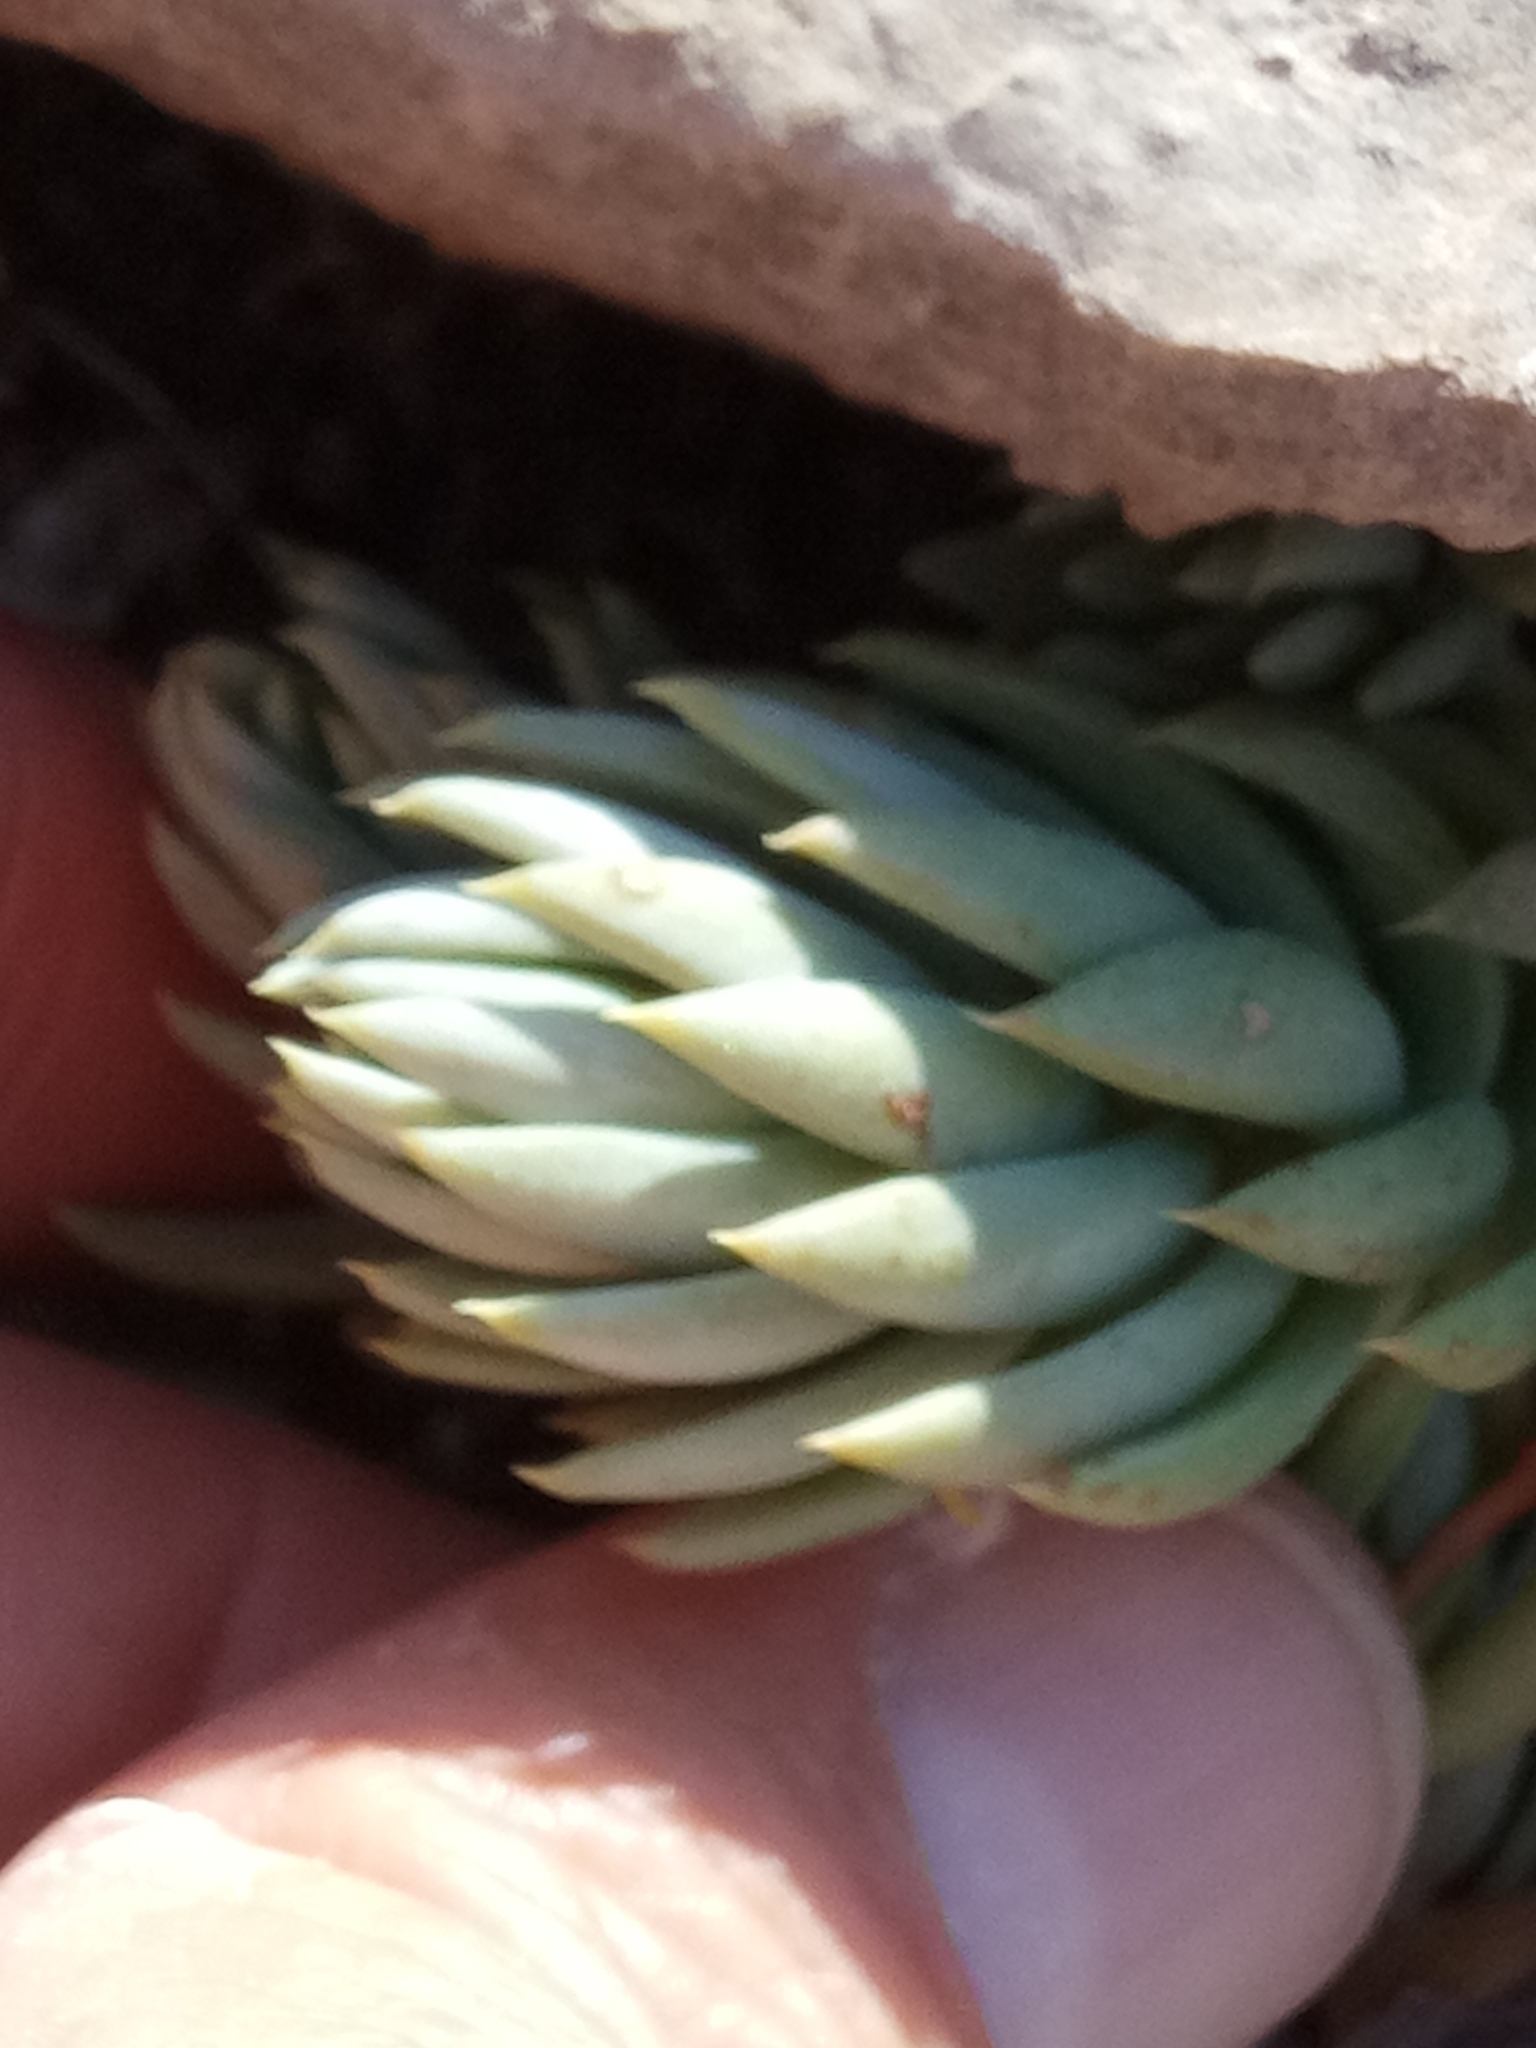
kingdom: Plantae
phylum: Tracheophyta
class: Magnoliopsida
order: Saxifragales
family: Crassulaceae
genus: Petrosedum
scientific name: Petrosedum sediforme
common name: Pale stonecrop
